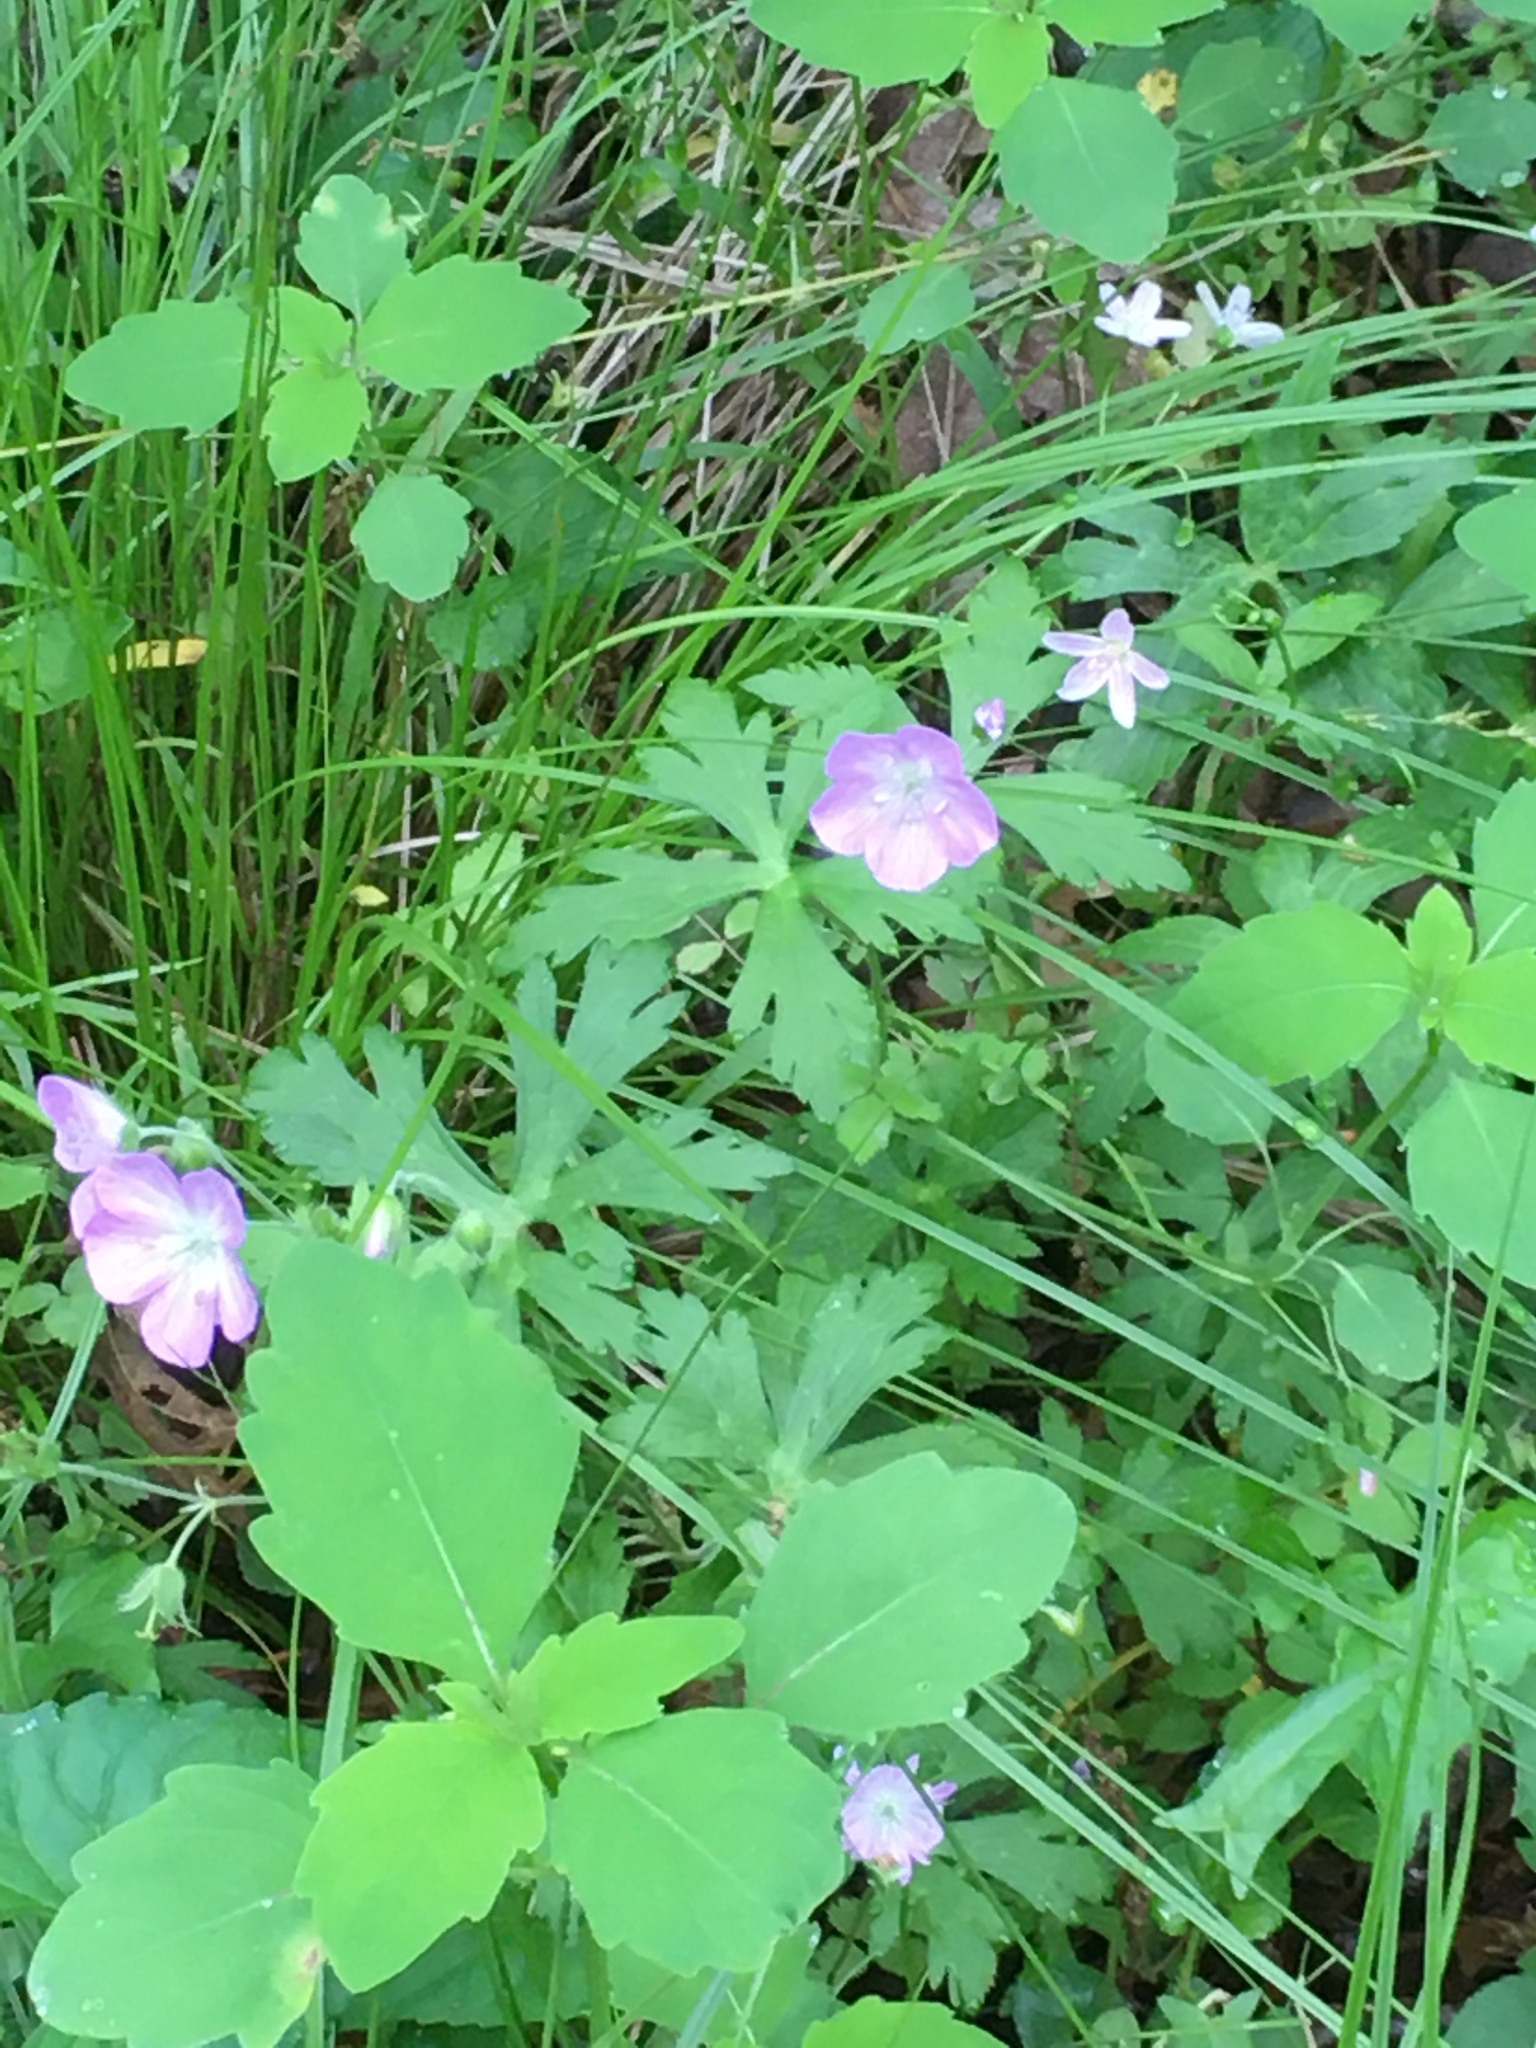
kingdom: Plantae
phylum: Tracheophyta
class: Magnoliopsida
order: Geraniales
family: Geraniaceae
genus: Geranium
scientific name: Geranium maculatum
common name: Spotted geranium
